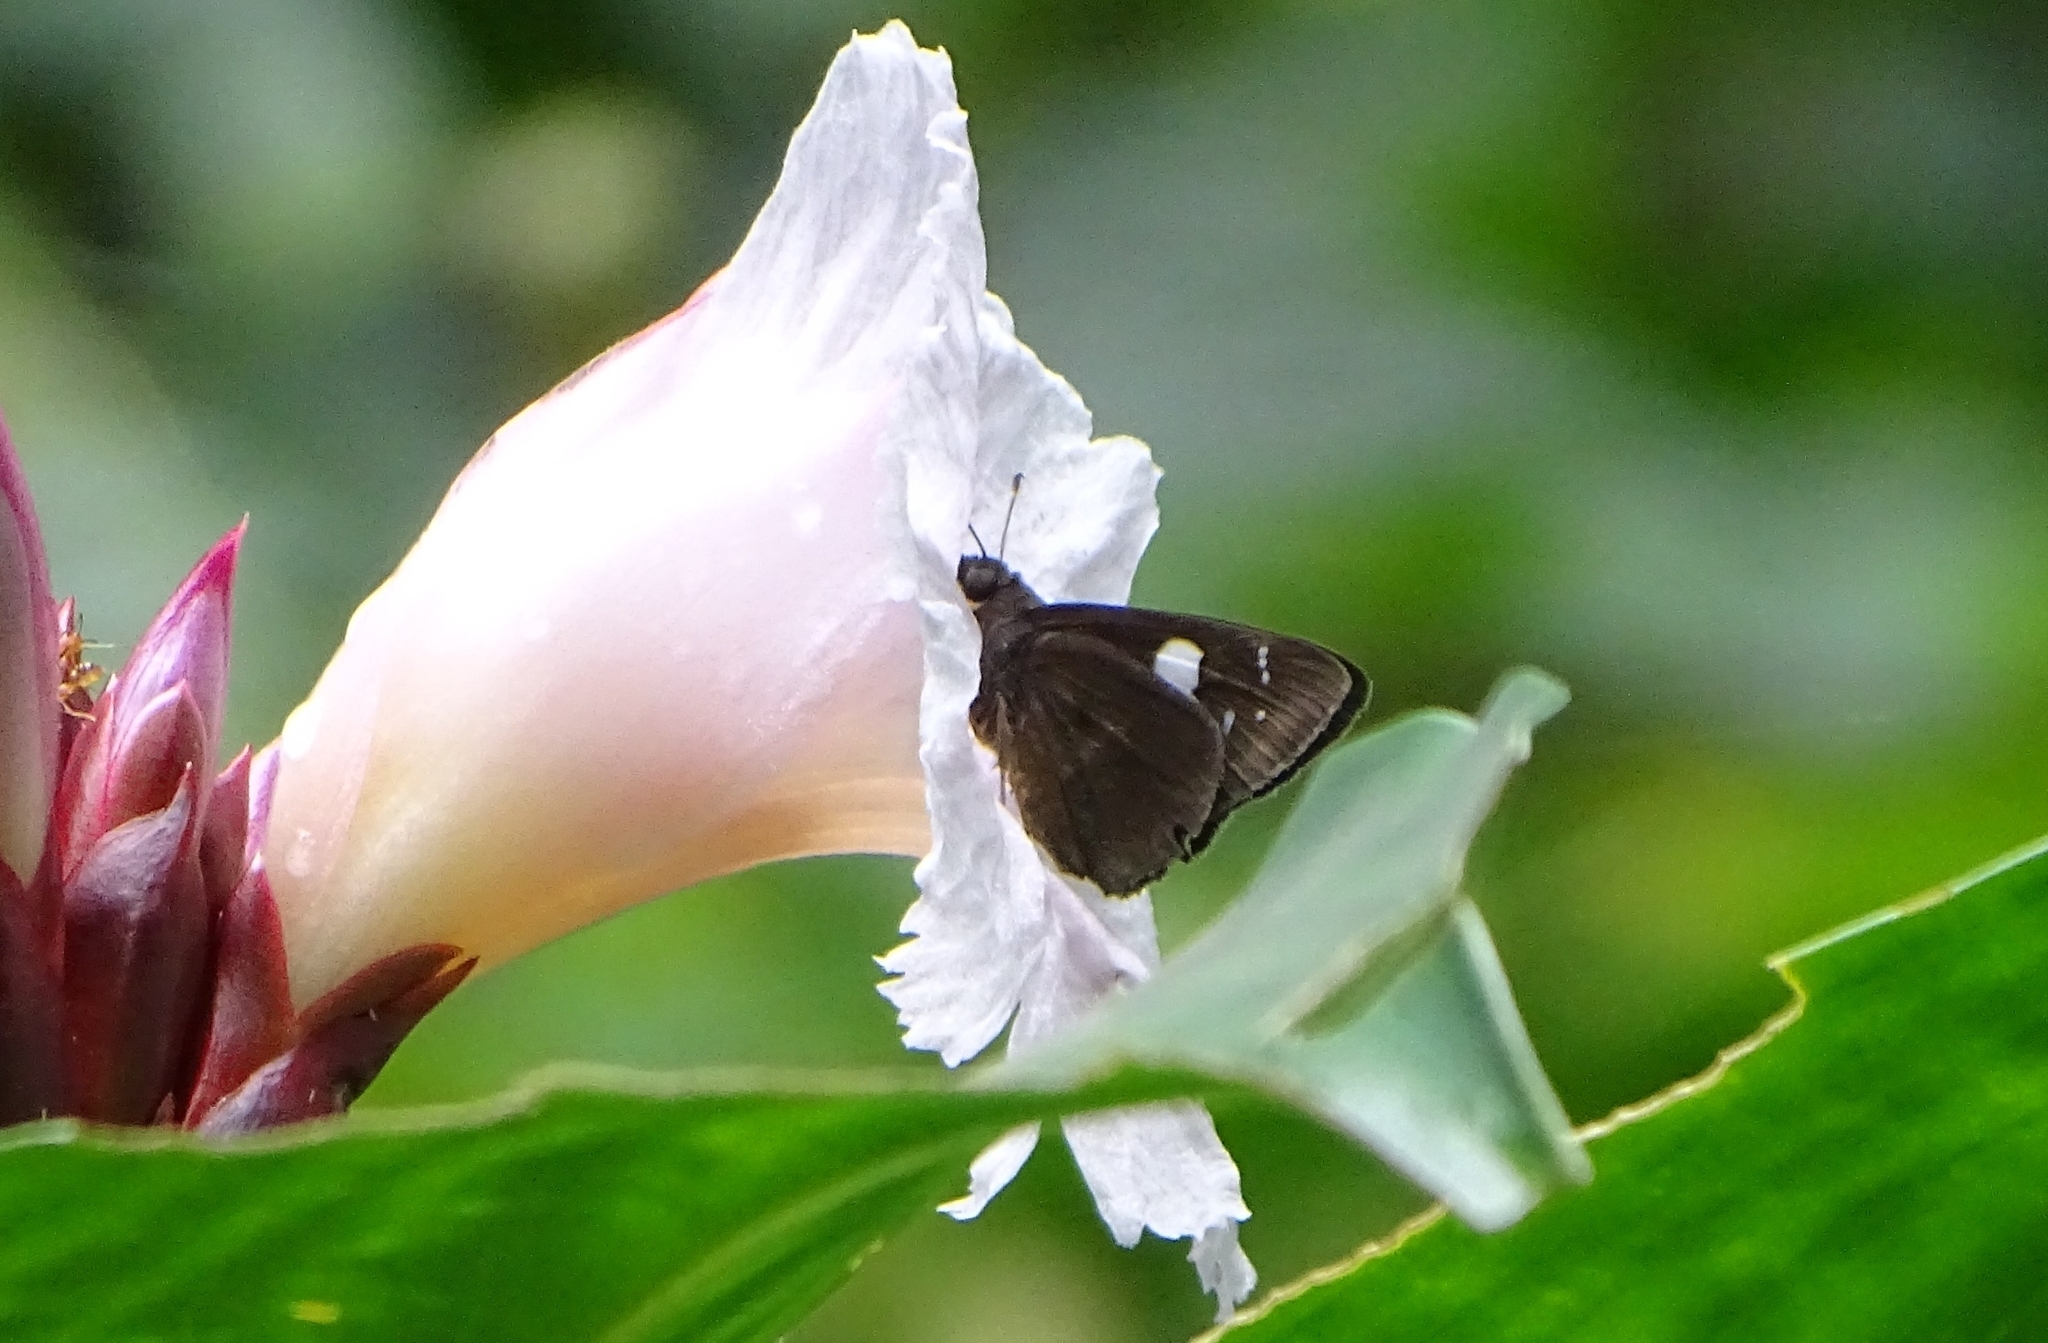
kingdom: Animalia
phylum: Arthropoda
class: Insecta
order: Lepidoptera
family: Hesperiidae
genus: Notocrypta
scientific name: Notocrypta curvifascia
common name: Restricted demon
